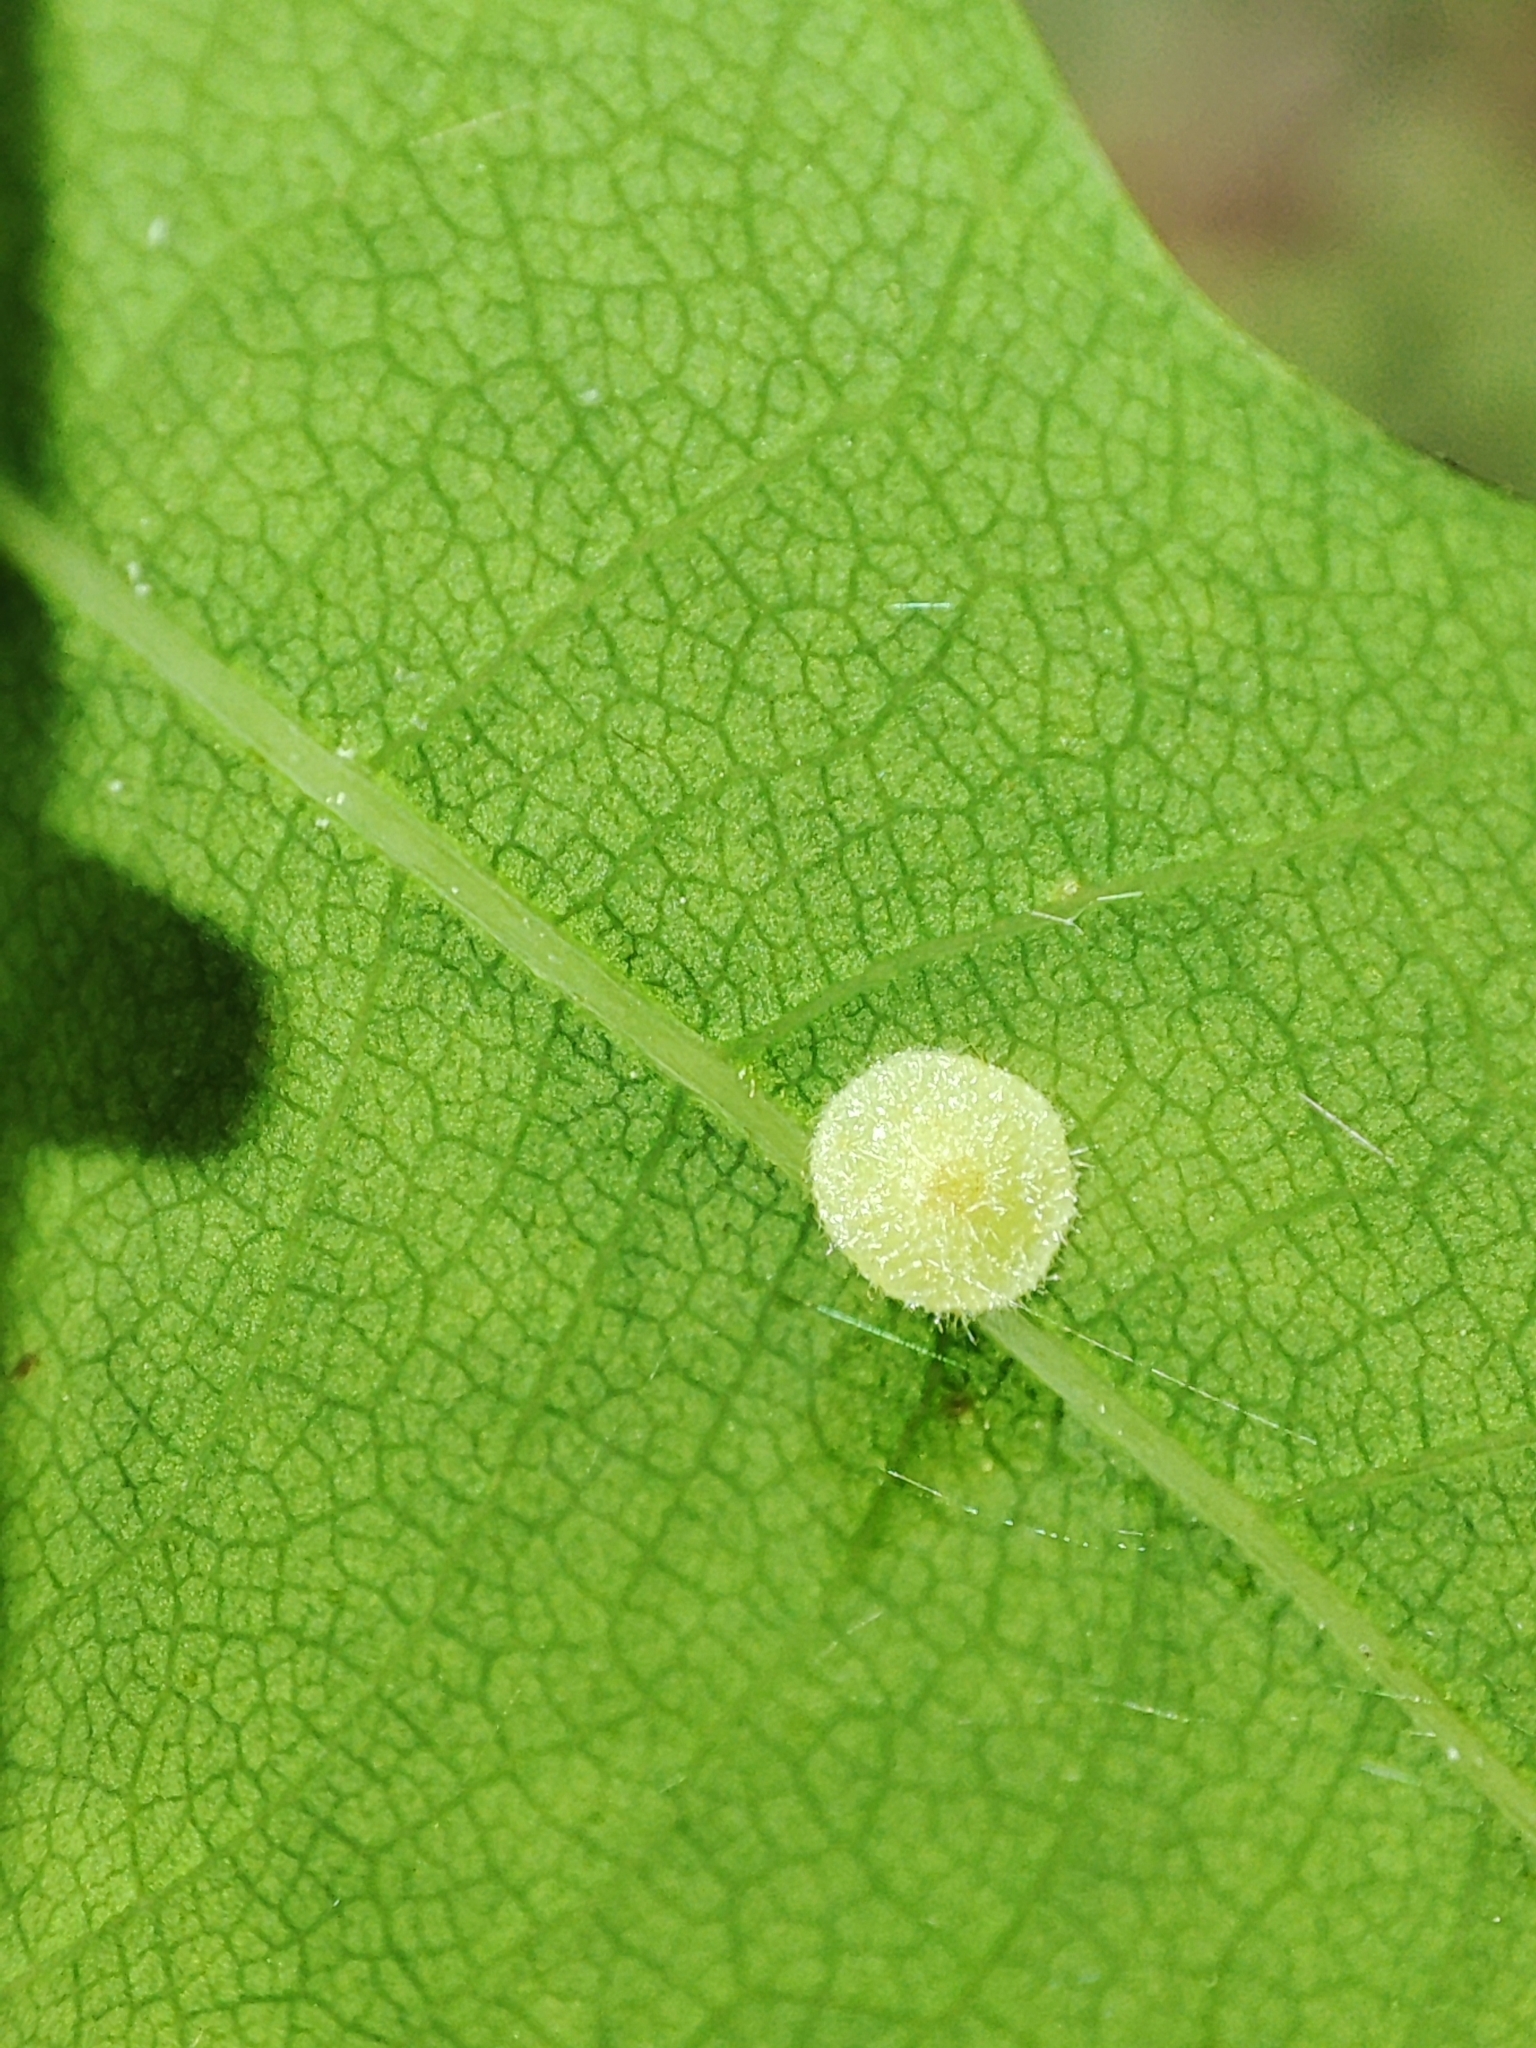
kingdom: Animalia
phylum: Arthropoda
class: Insecta
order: Hymenoptera
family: Cynipidae
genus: Neuroterus
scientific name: Neuroterus quercusbaccarum
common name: Common spangle gall
